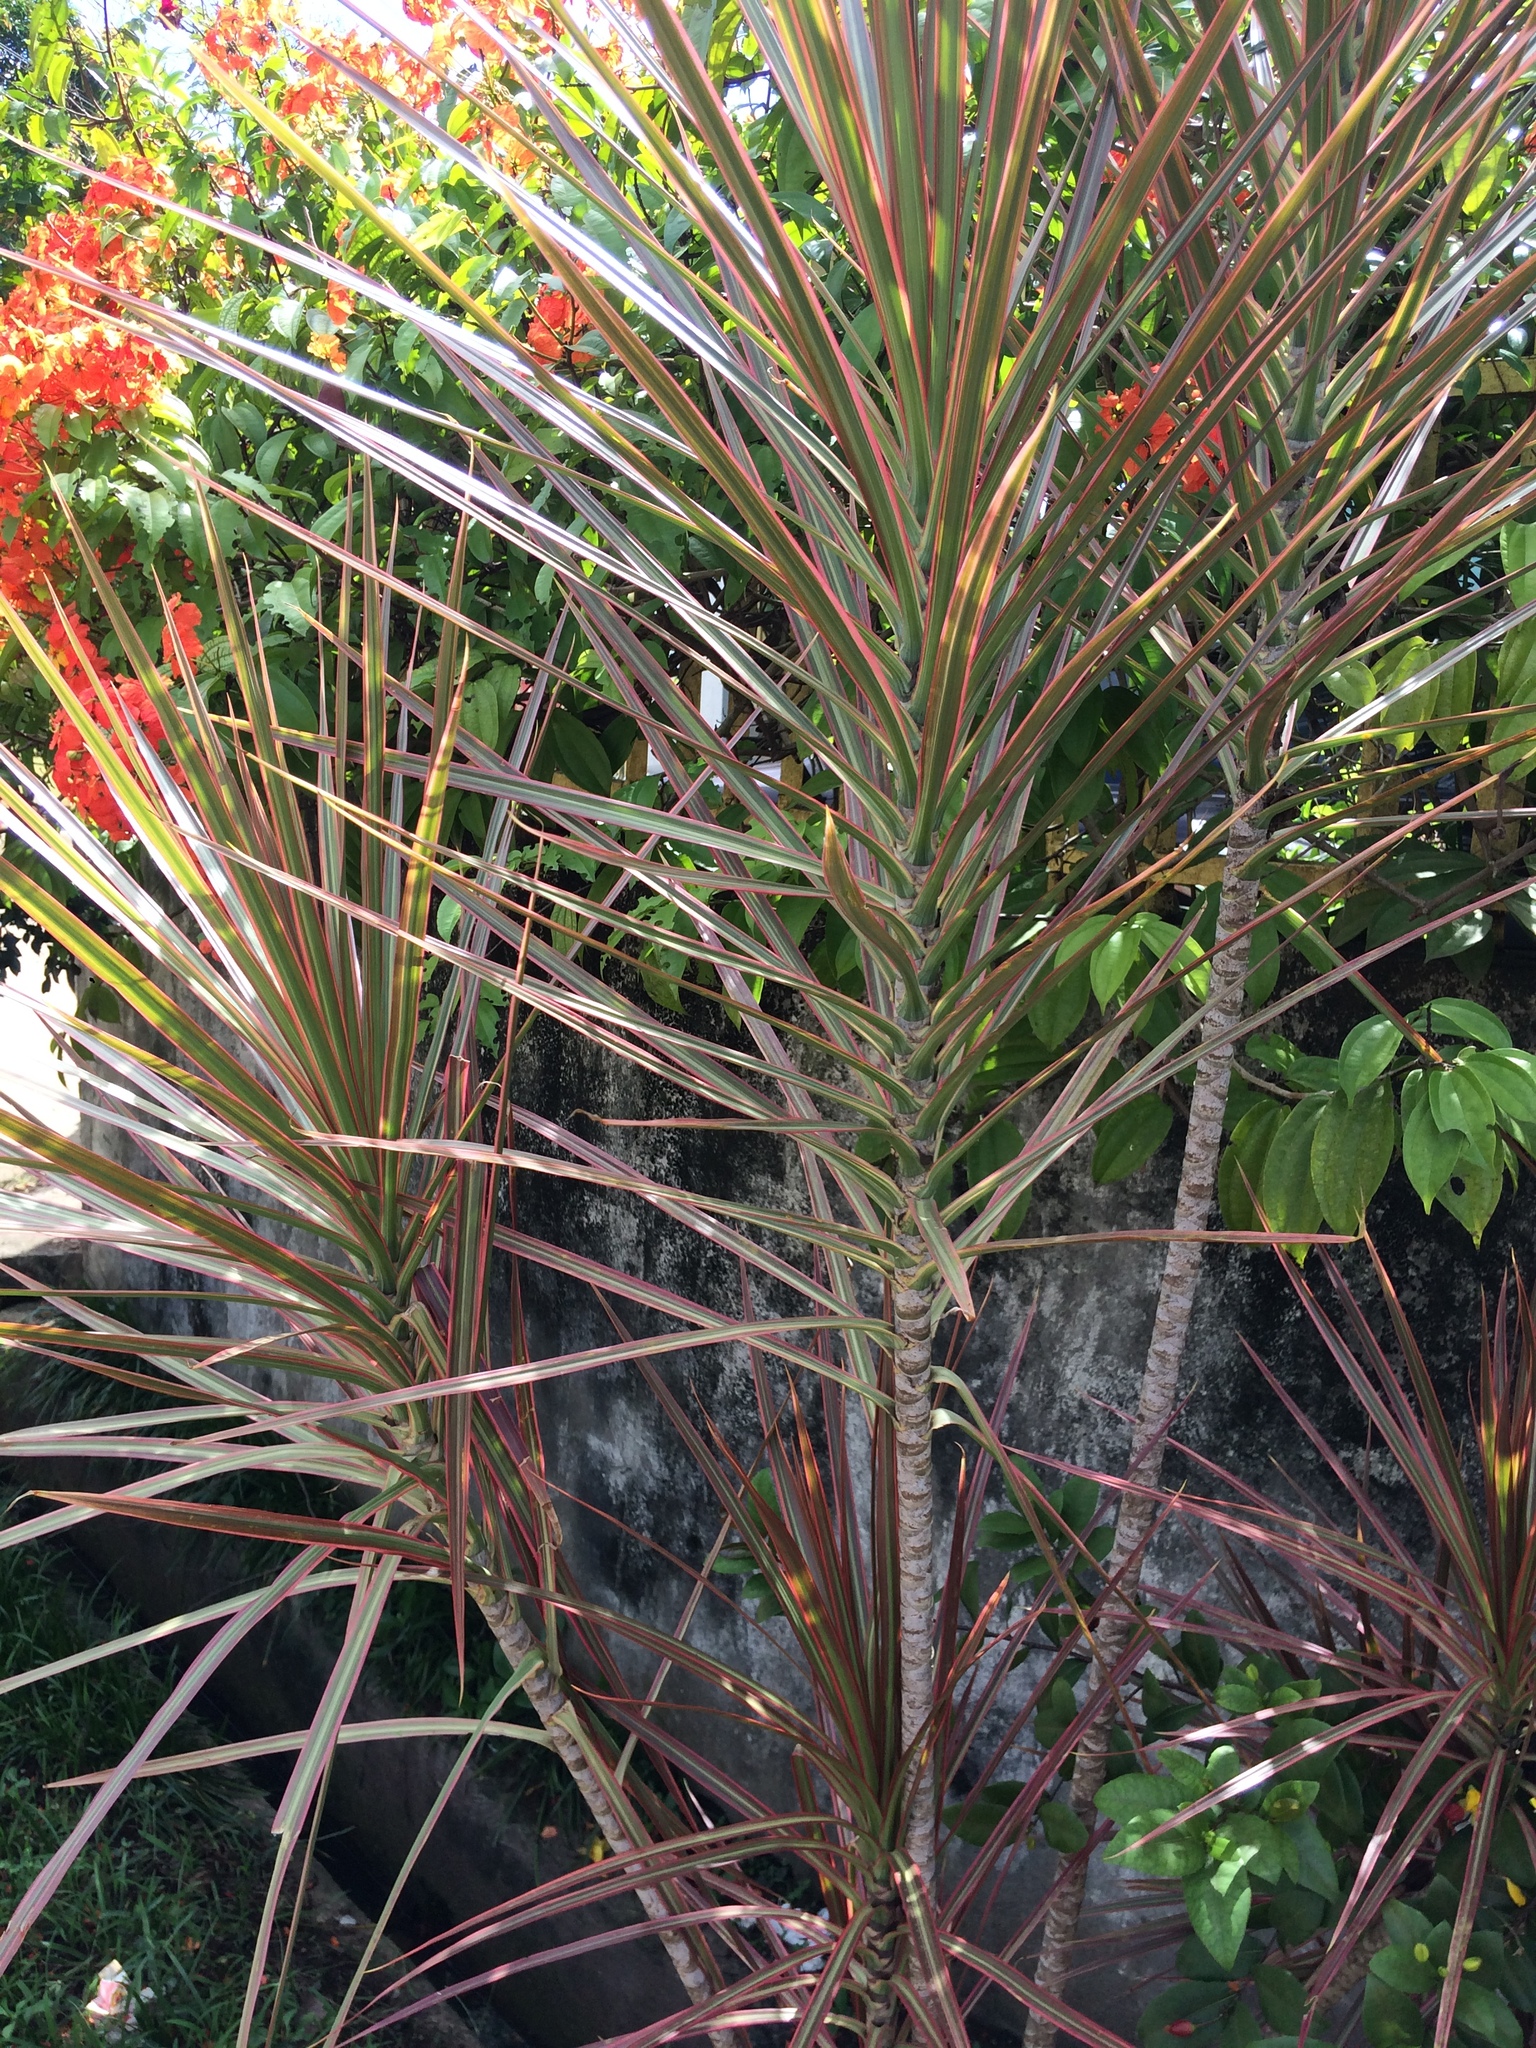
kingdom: Plantae
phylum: Tracheophyta
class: Liliopsida
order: Asparagales
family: Asparagaceae
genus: Dracaena
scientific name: Dracaena reflexa
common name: Song-of-india
